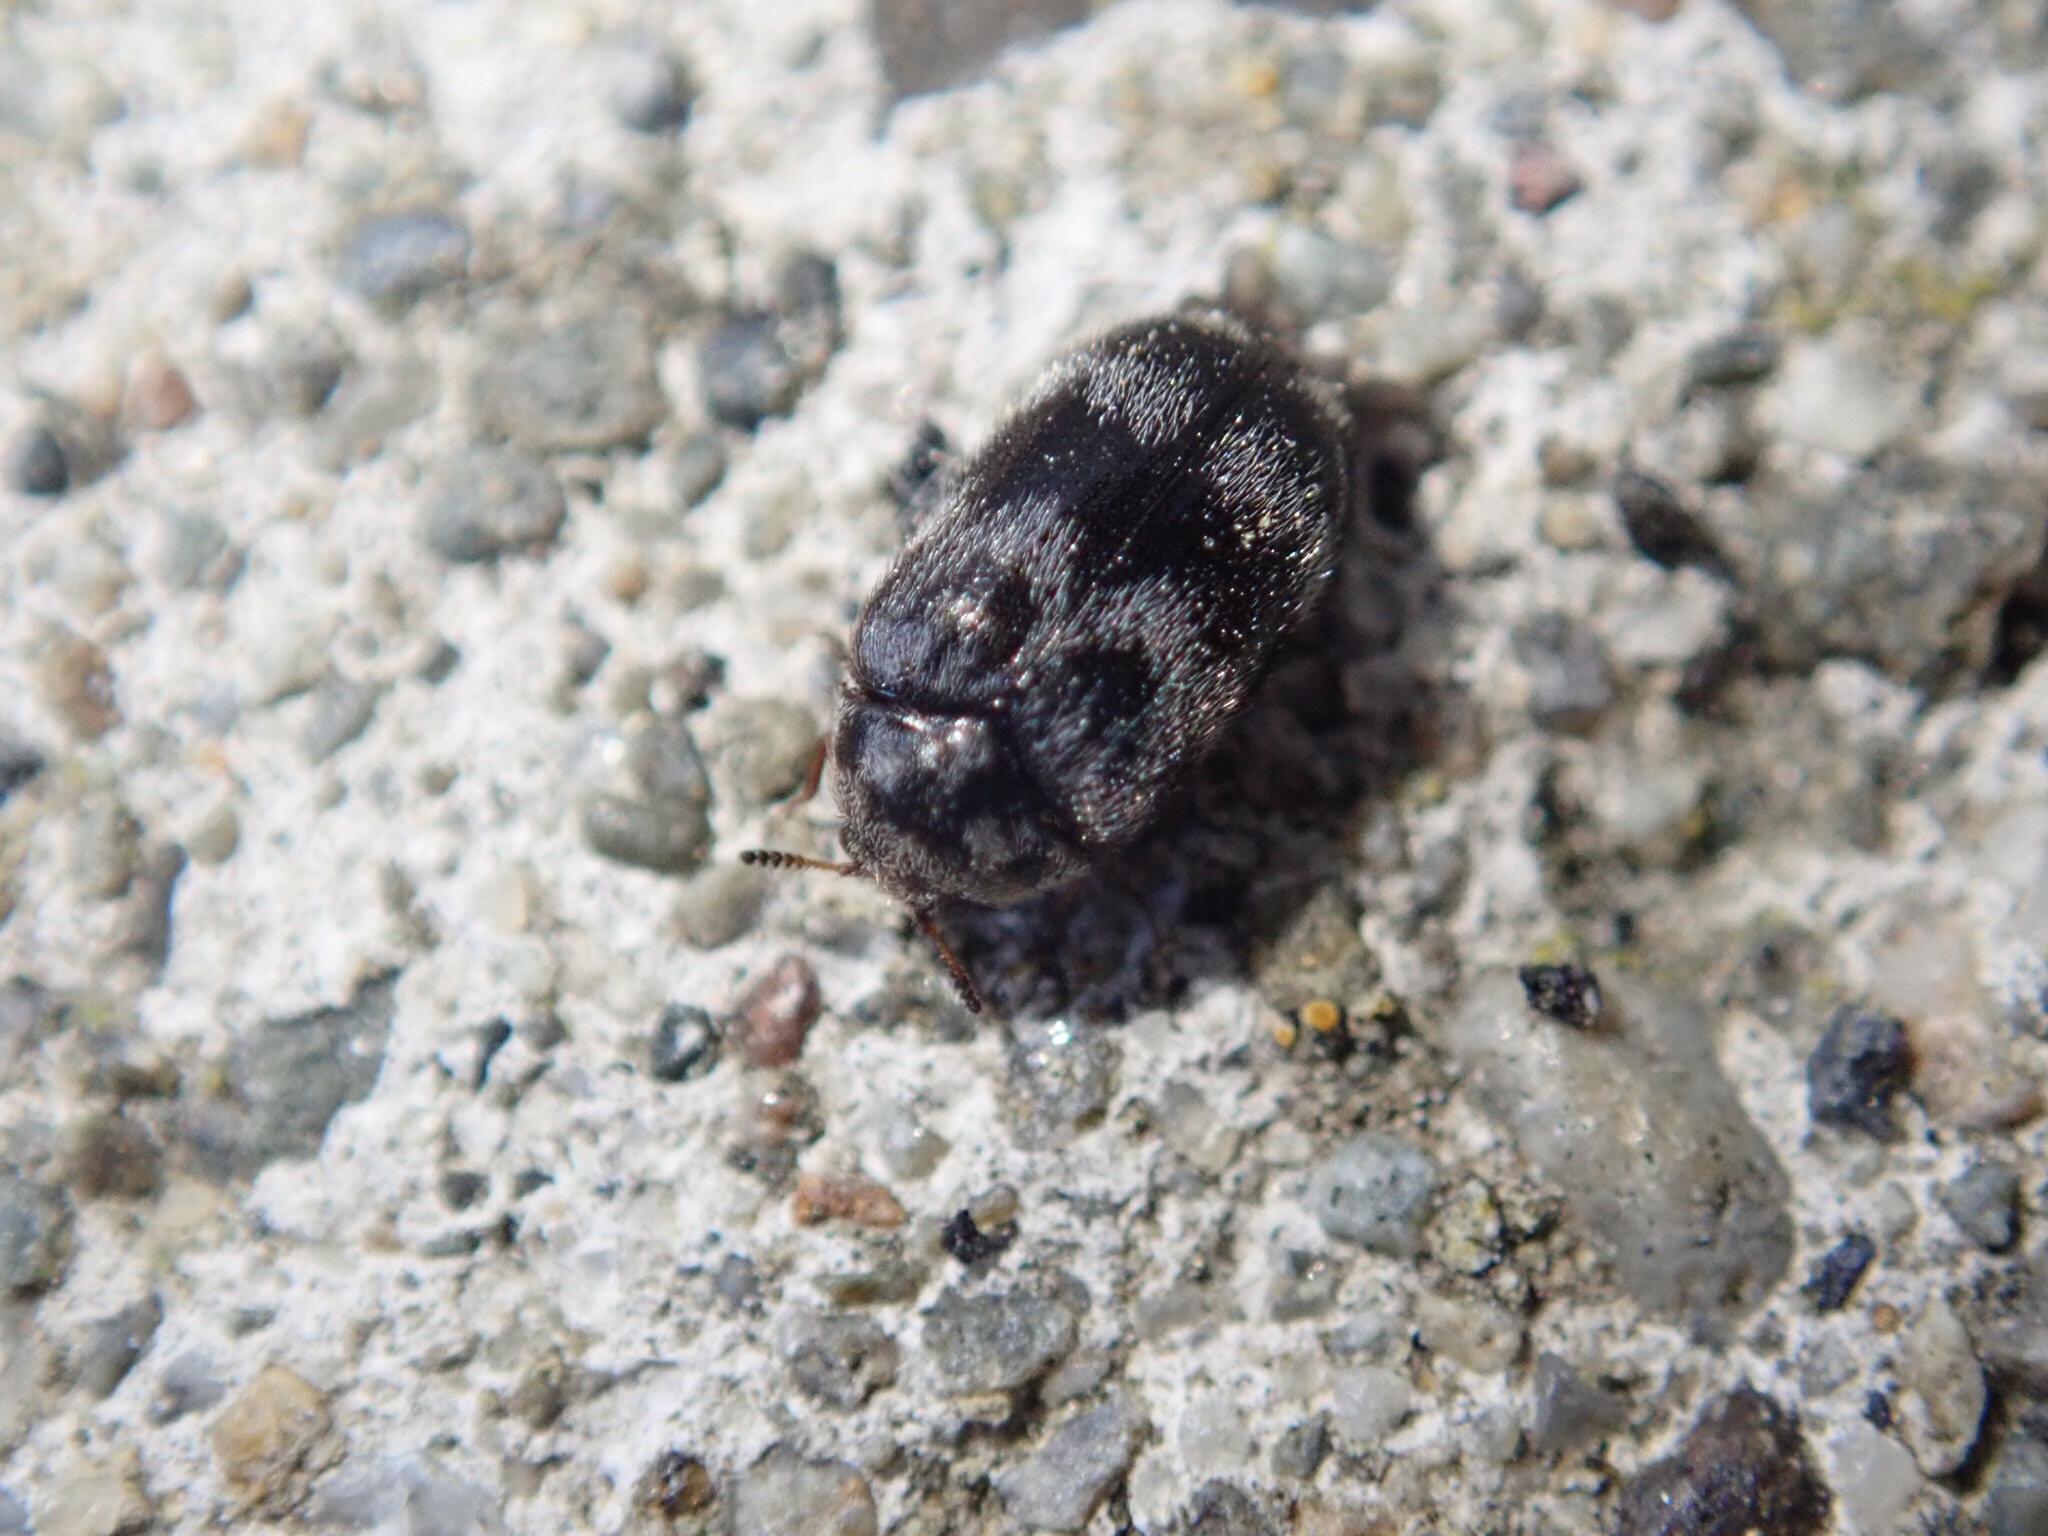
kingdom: Animalia
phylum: Arthropoda
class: Insecta
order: Coleoptera
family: Dermestidae
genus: Trogoderma
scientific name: Trogoderma
